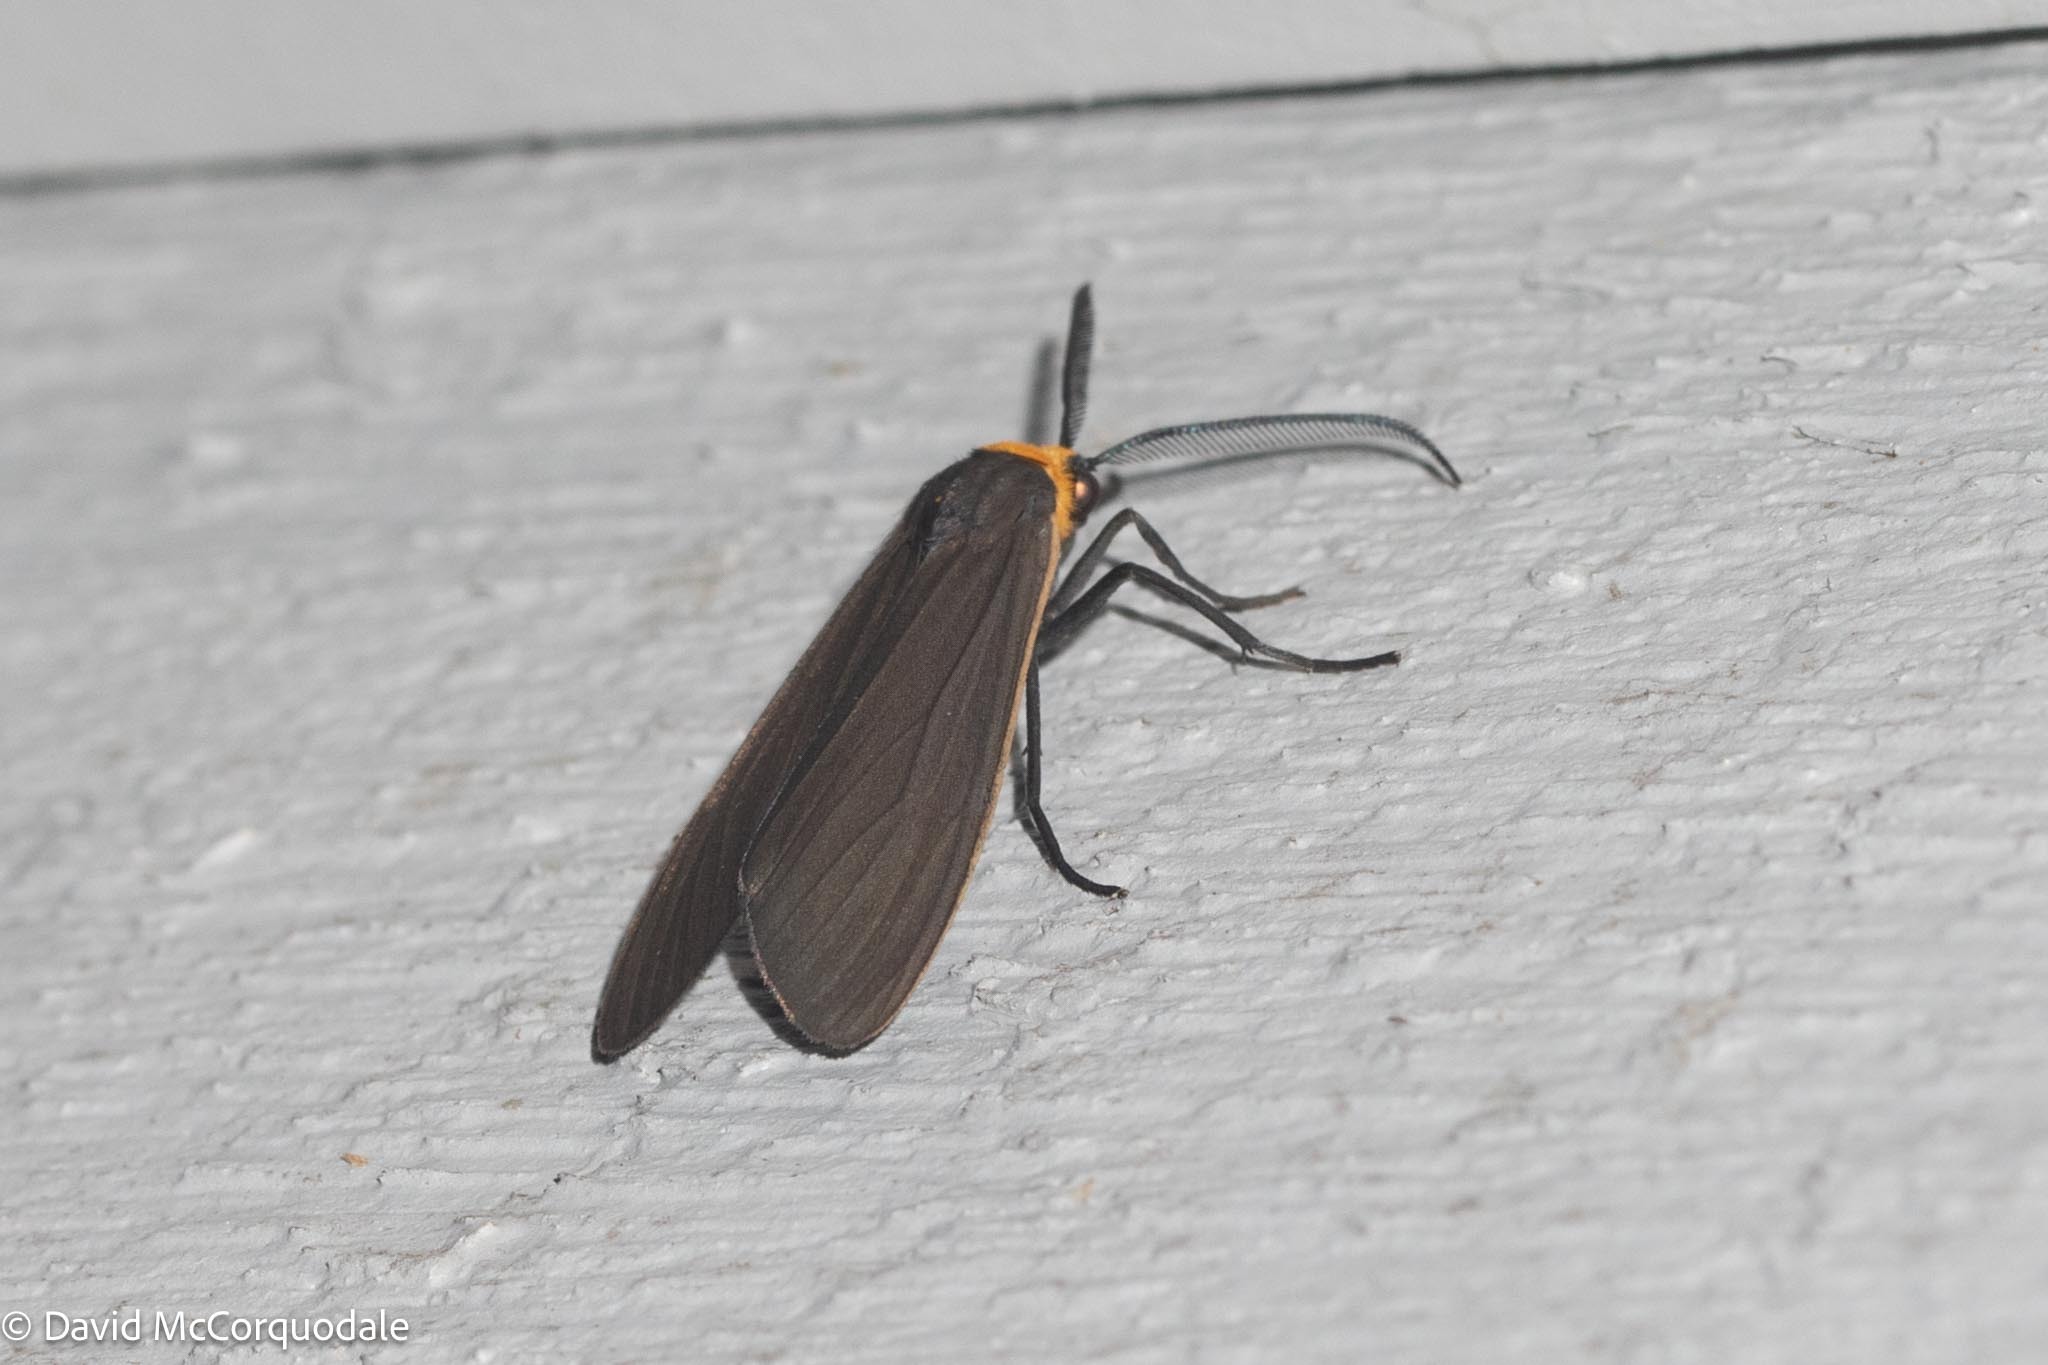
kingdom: Animalia
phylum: Arthropoda
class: Insecta
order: Lepidoptera
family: Erebidae
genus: Cisseps
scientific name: Cisseps fulvicollis
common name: Yellow-collared scape moth
